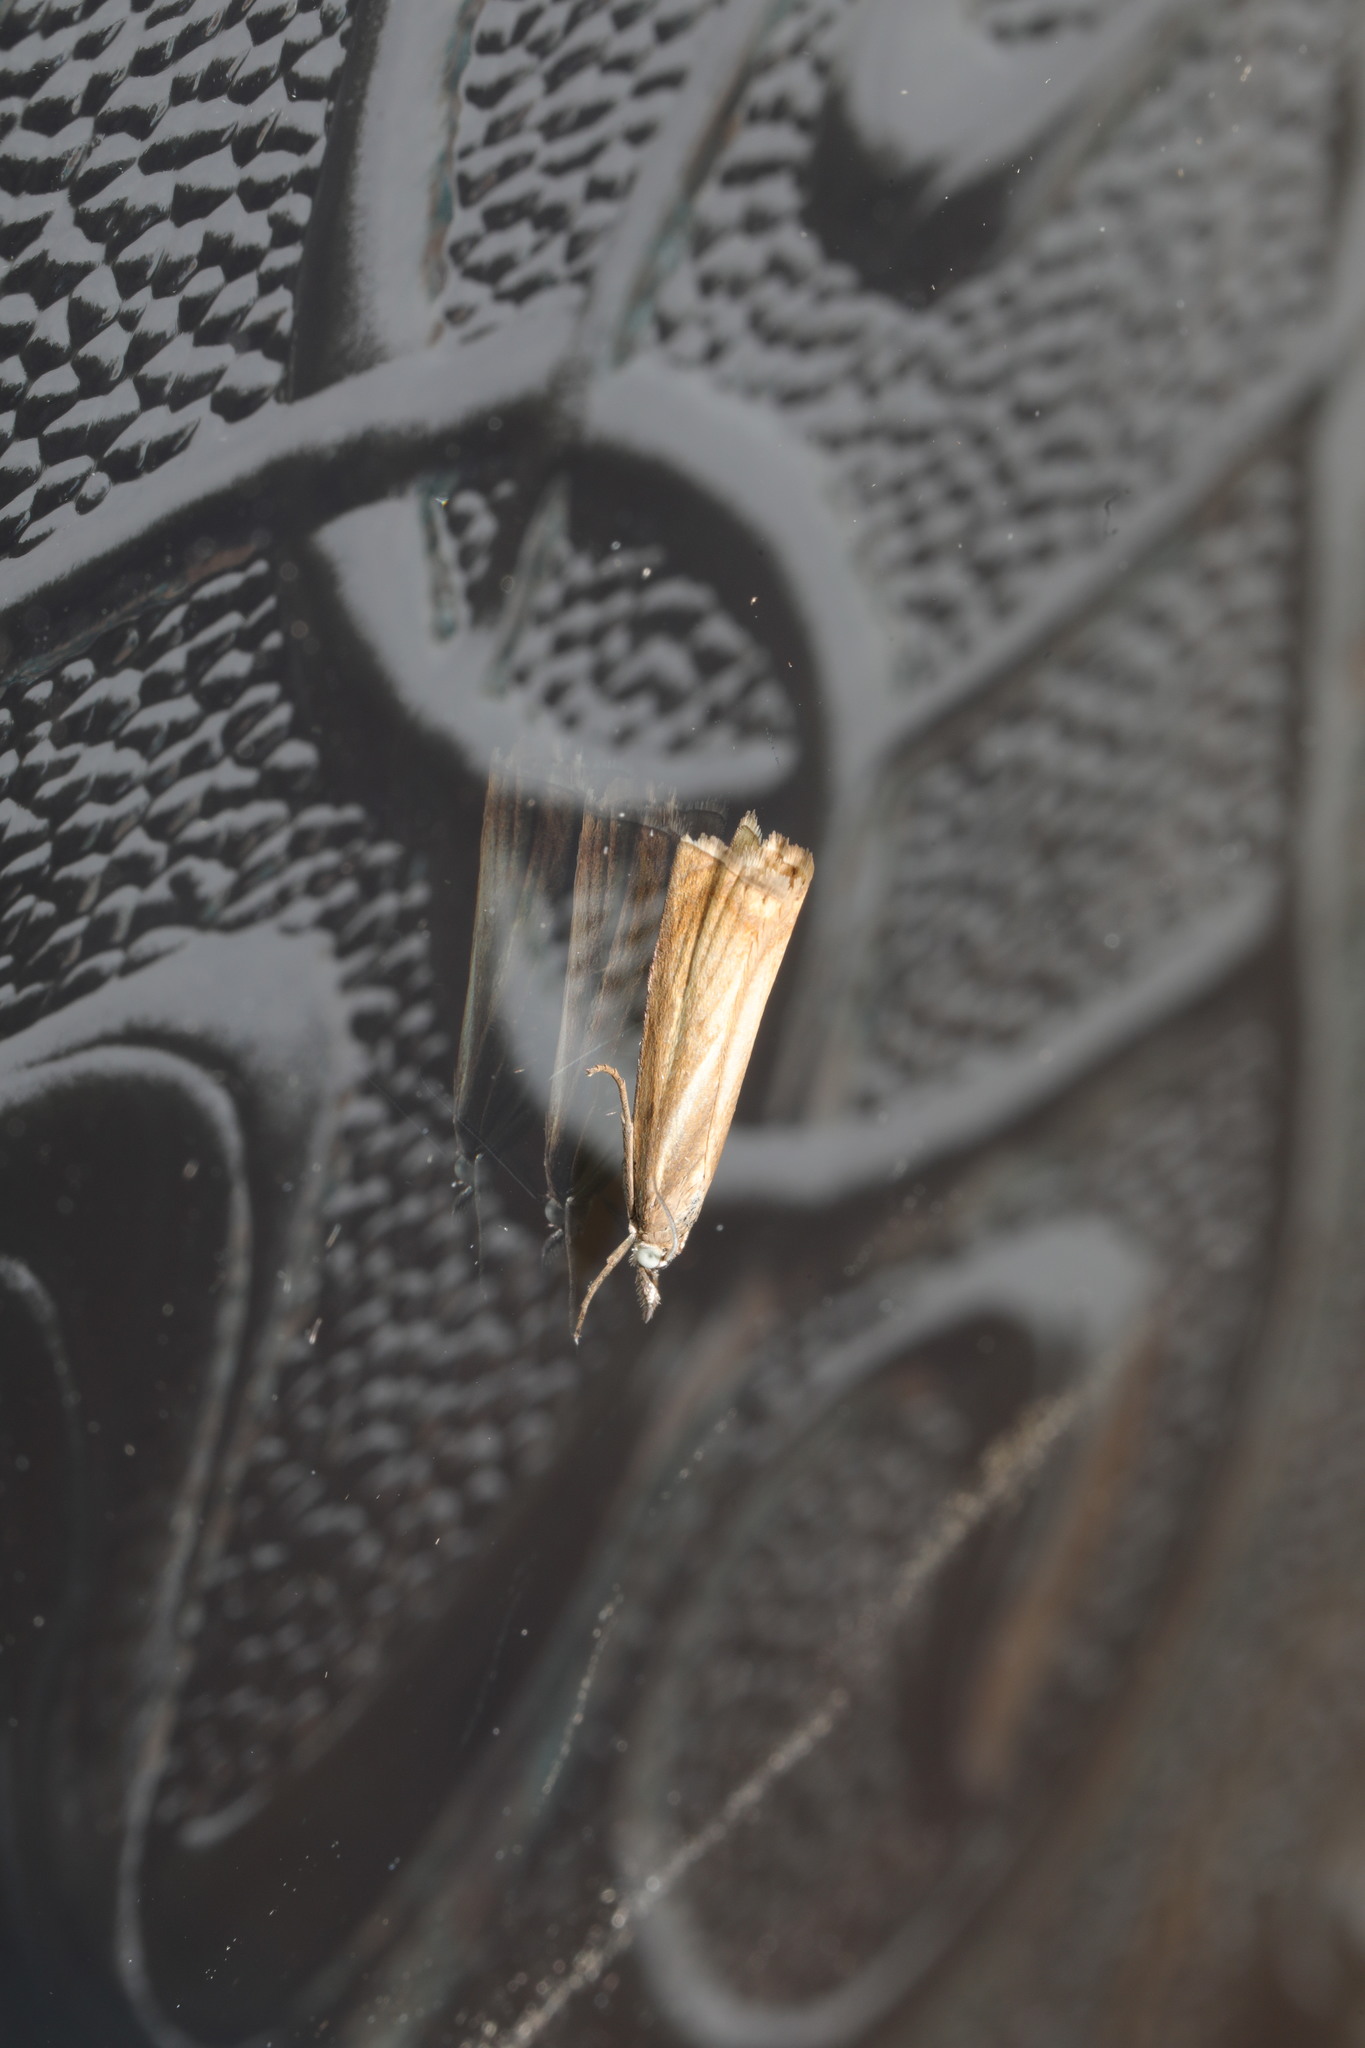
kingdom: Animalia
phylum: Arthropoda
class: Insecta
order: Lepidoptera
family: Crambidae
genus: Chrysoteuchia
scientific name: Chrysoteuchia culmella
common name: Garden grass-veneer
